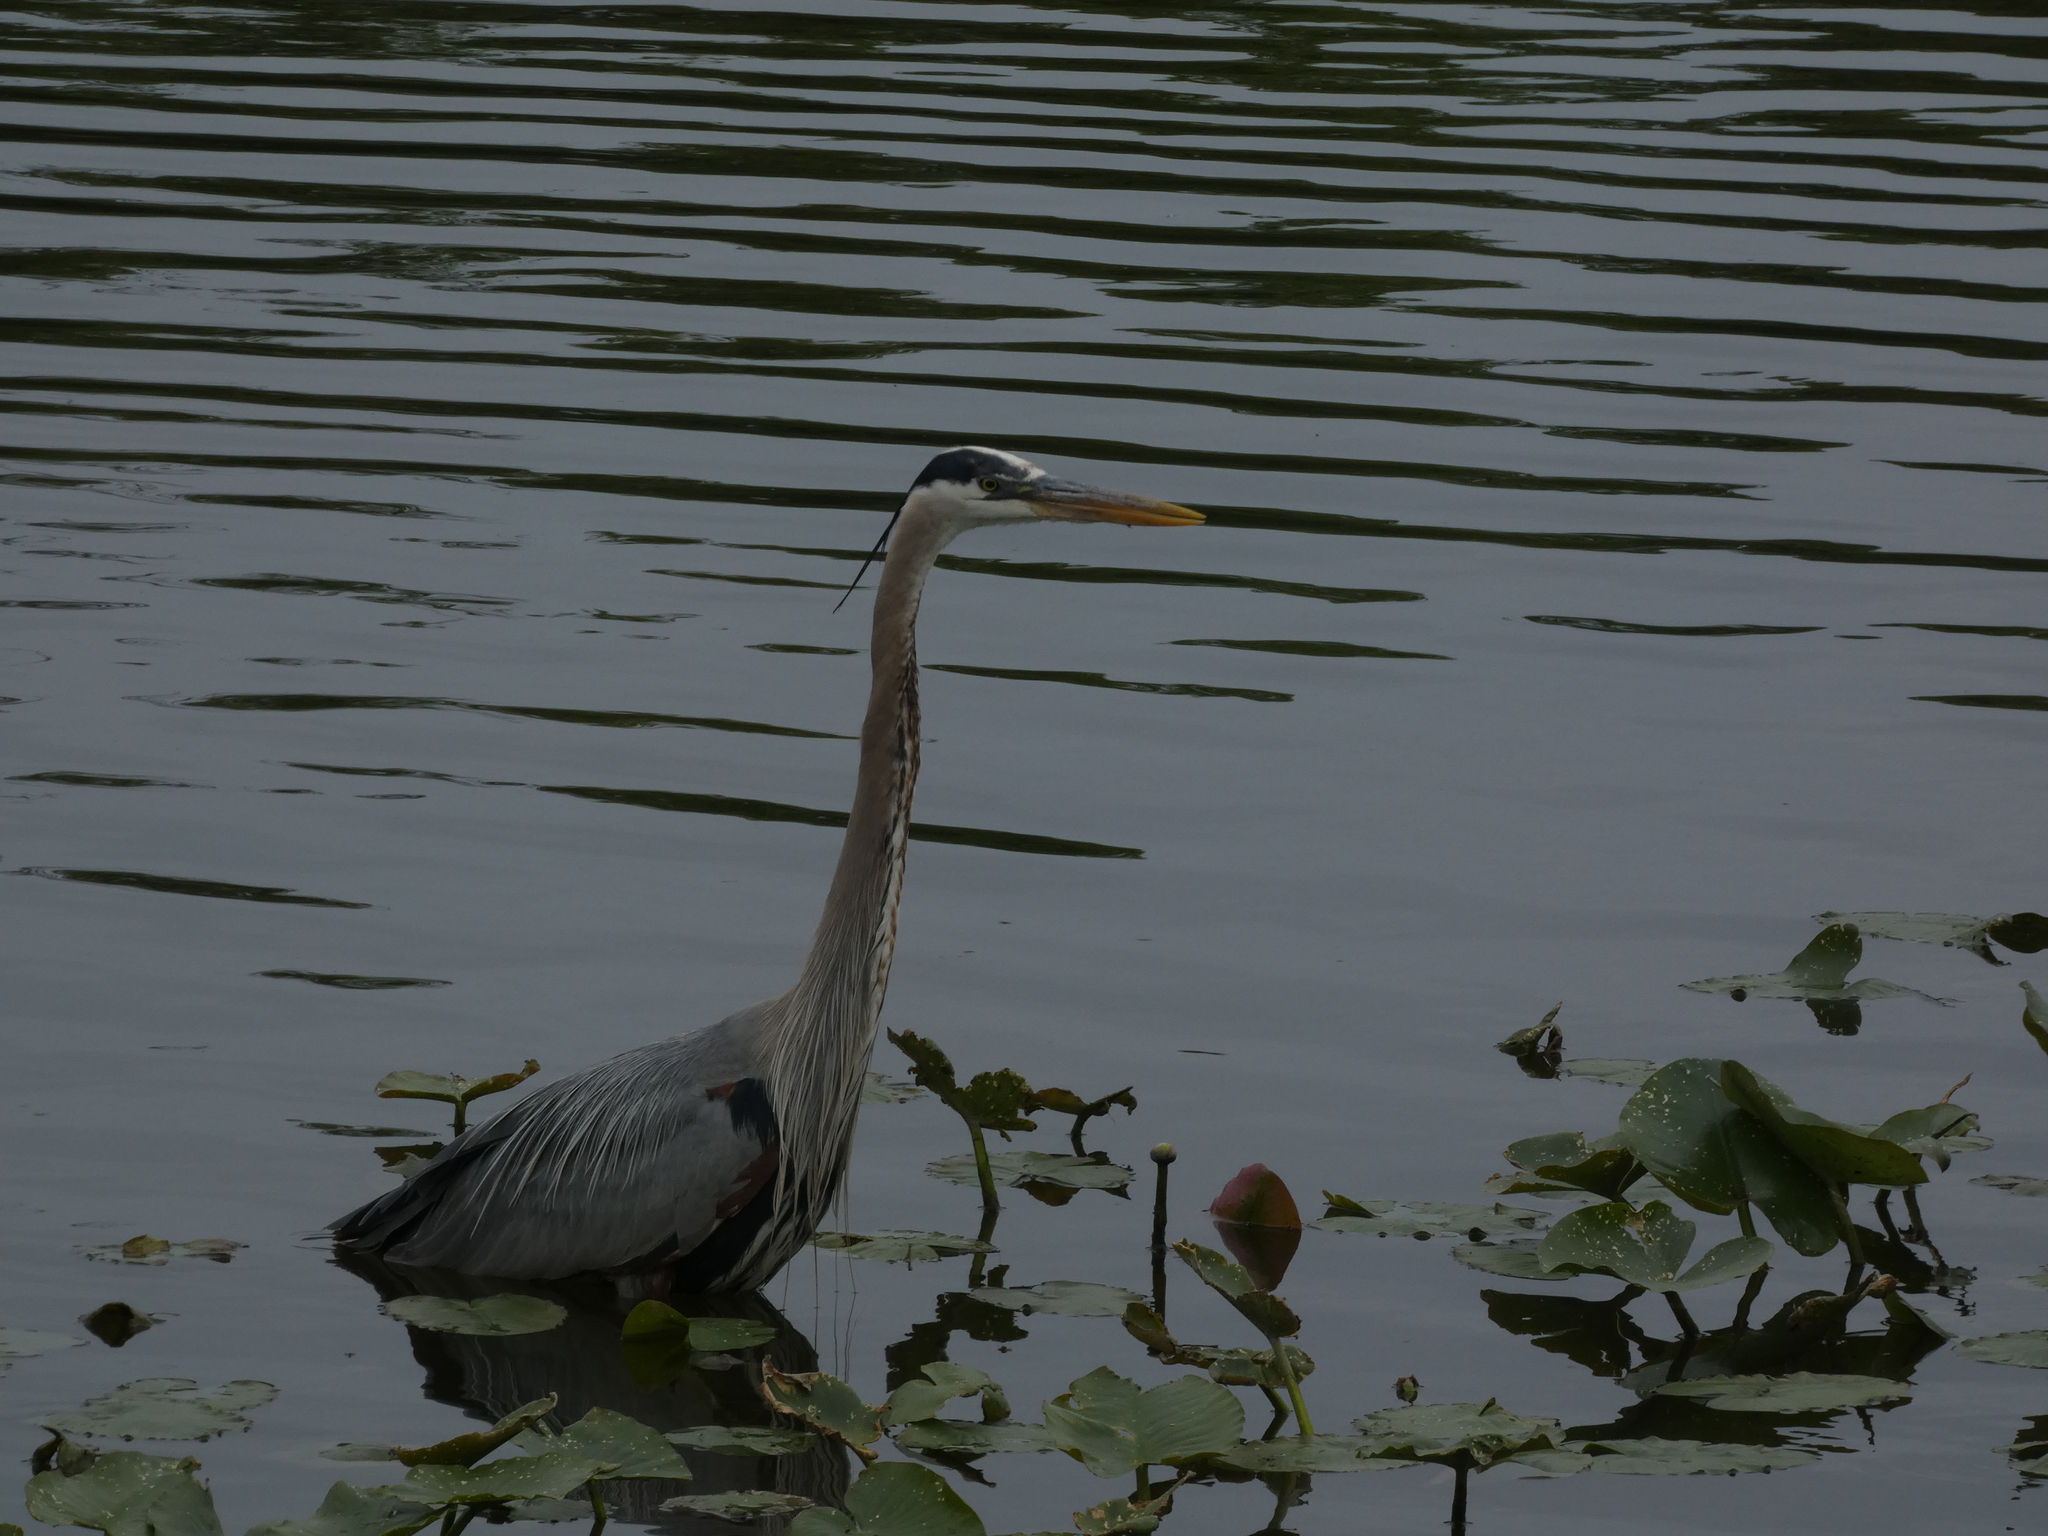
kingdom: Animalia
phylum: Chordata
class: Aves
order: Pelecaniformes
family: Ardeidae
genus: Ardea
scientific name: Ardea herodias
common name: Great blue heron
